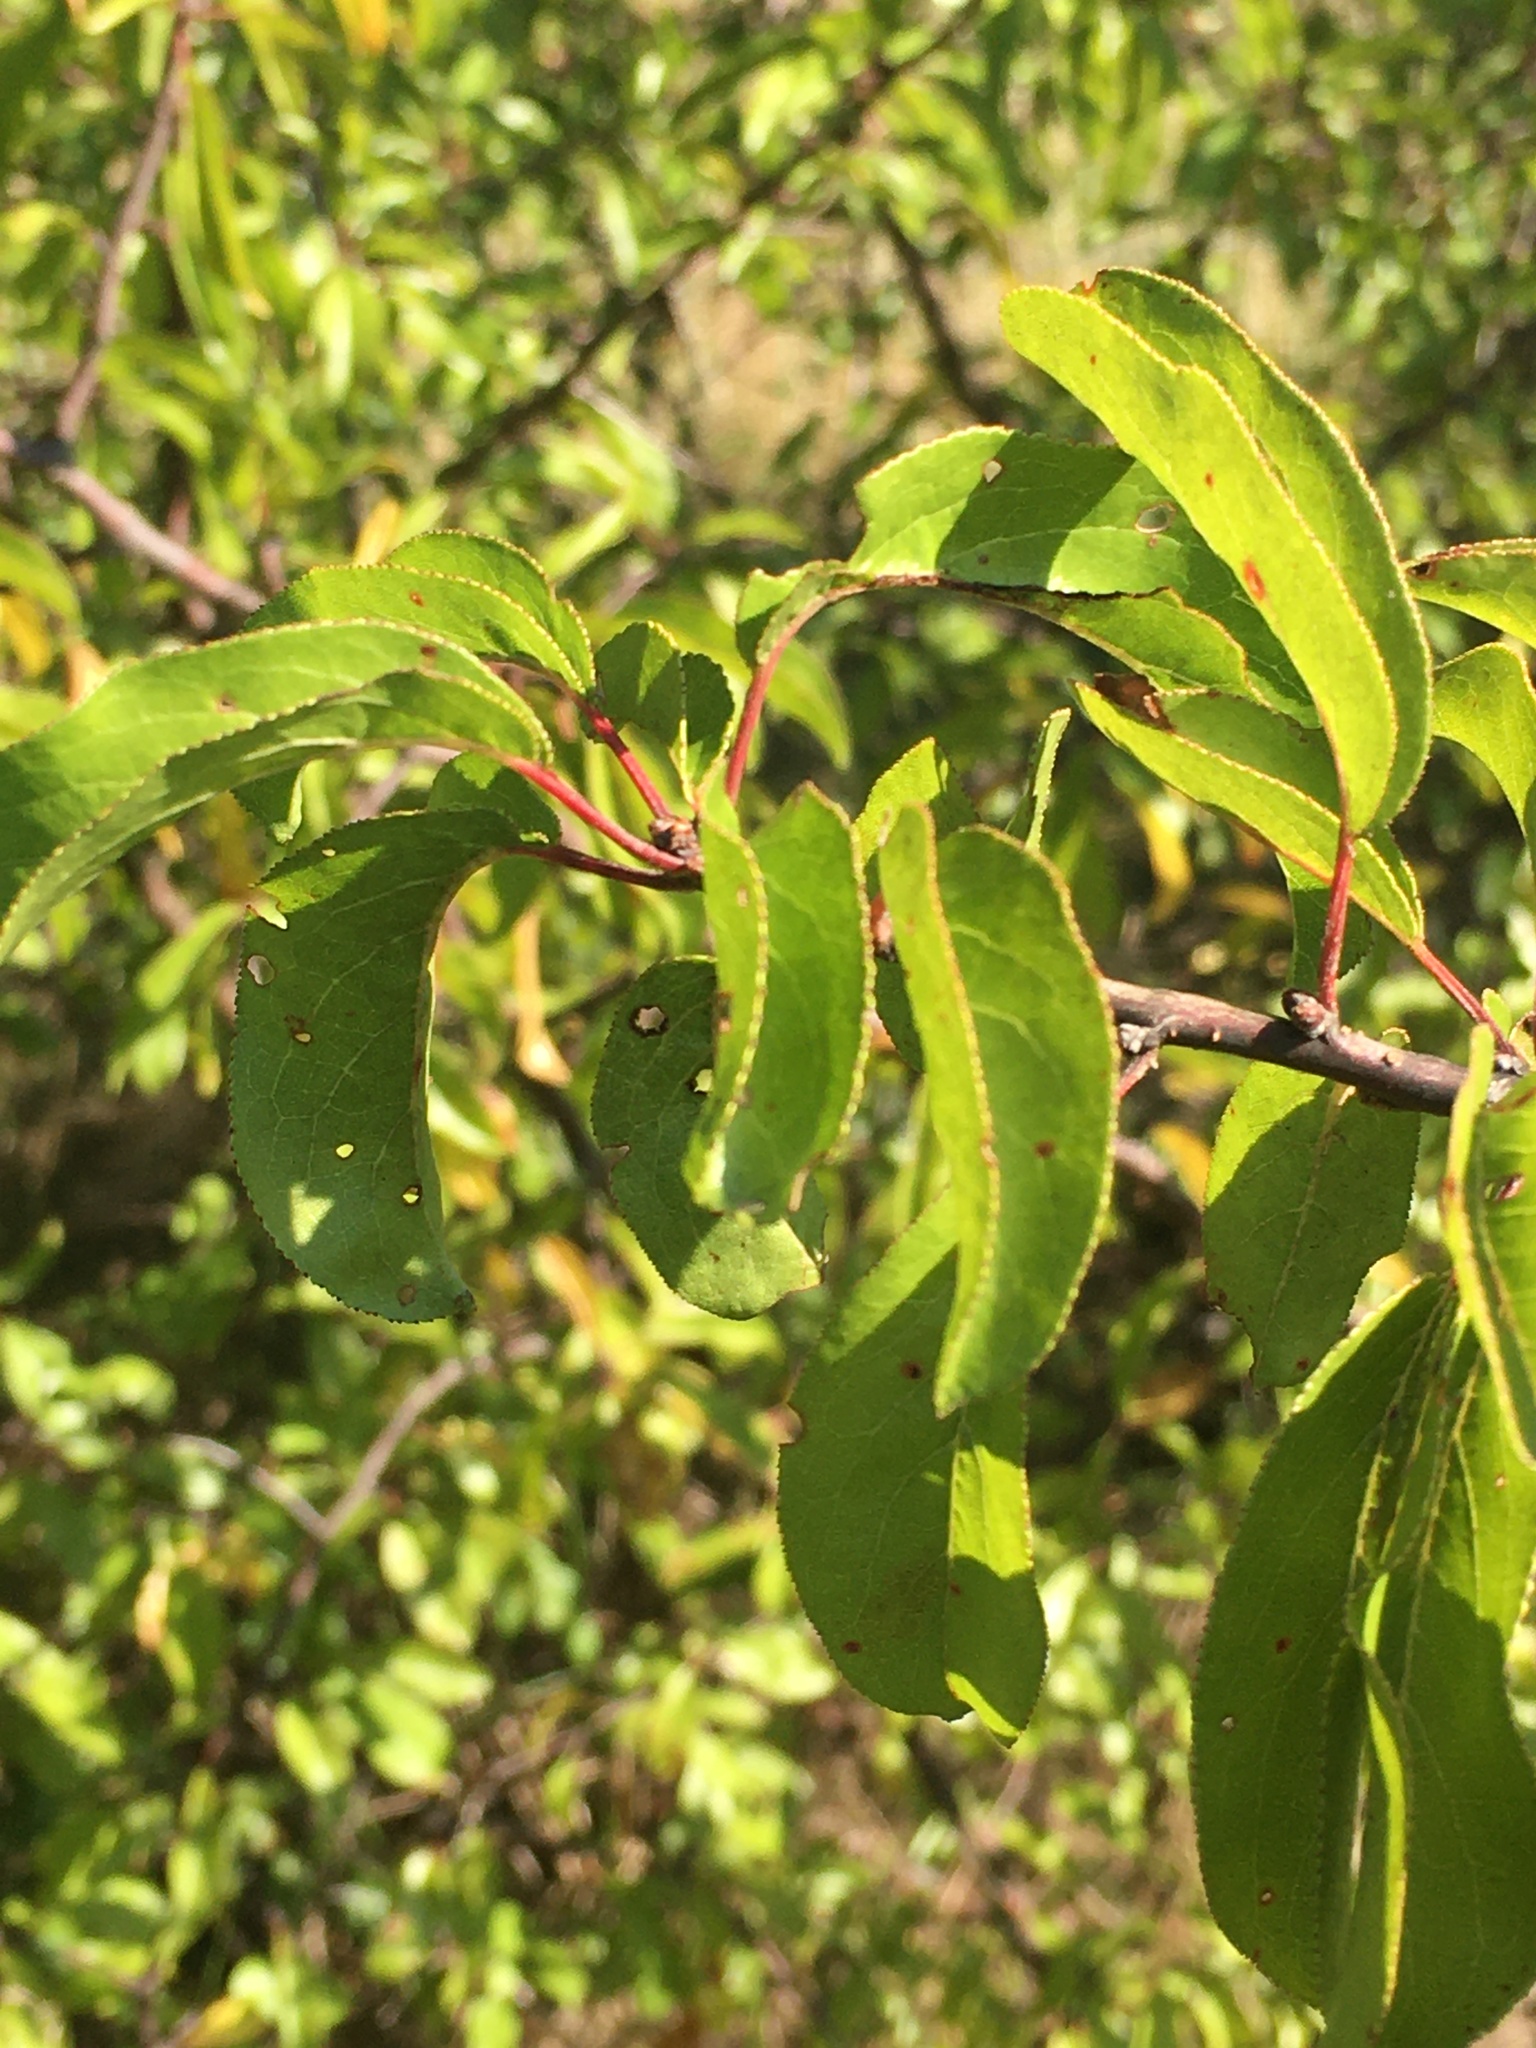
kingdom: Plantae
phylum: Tracheophyta
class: Magnoliopsida
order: Rosales
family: Rosaceae
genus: Prunus
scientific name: Prunus angustifolia
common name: Cherokee plum
